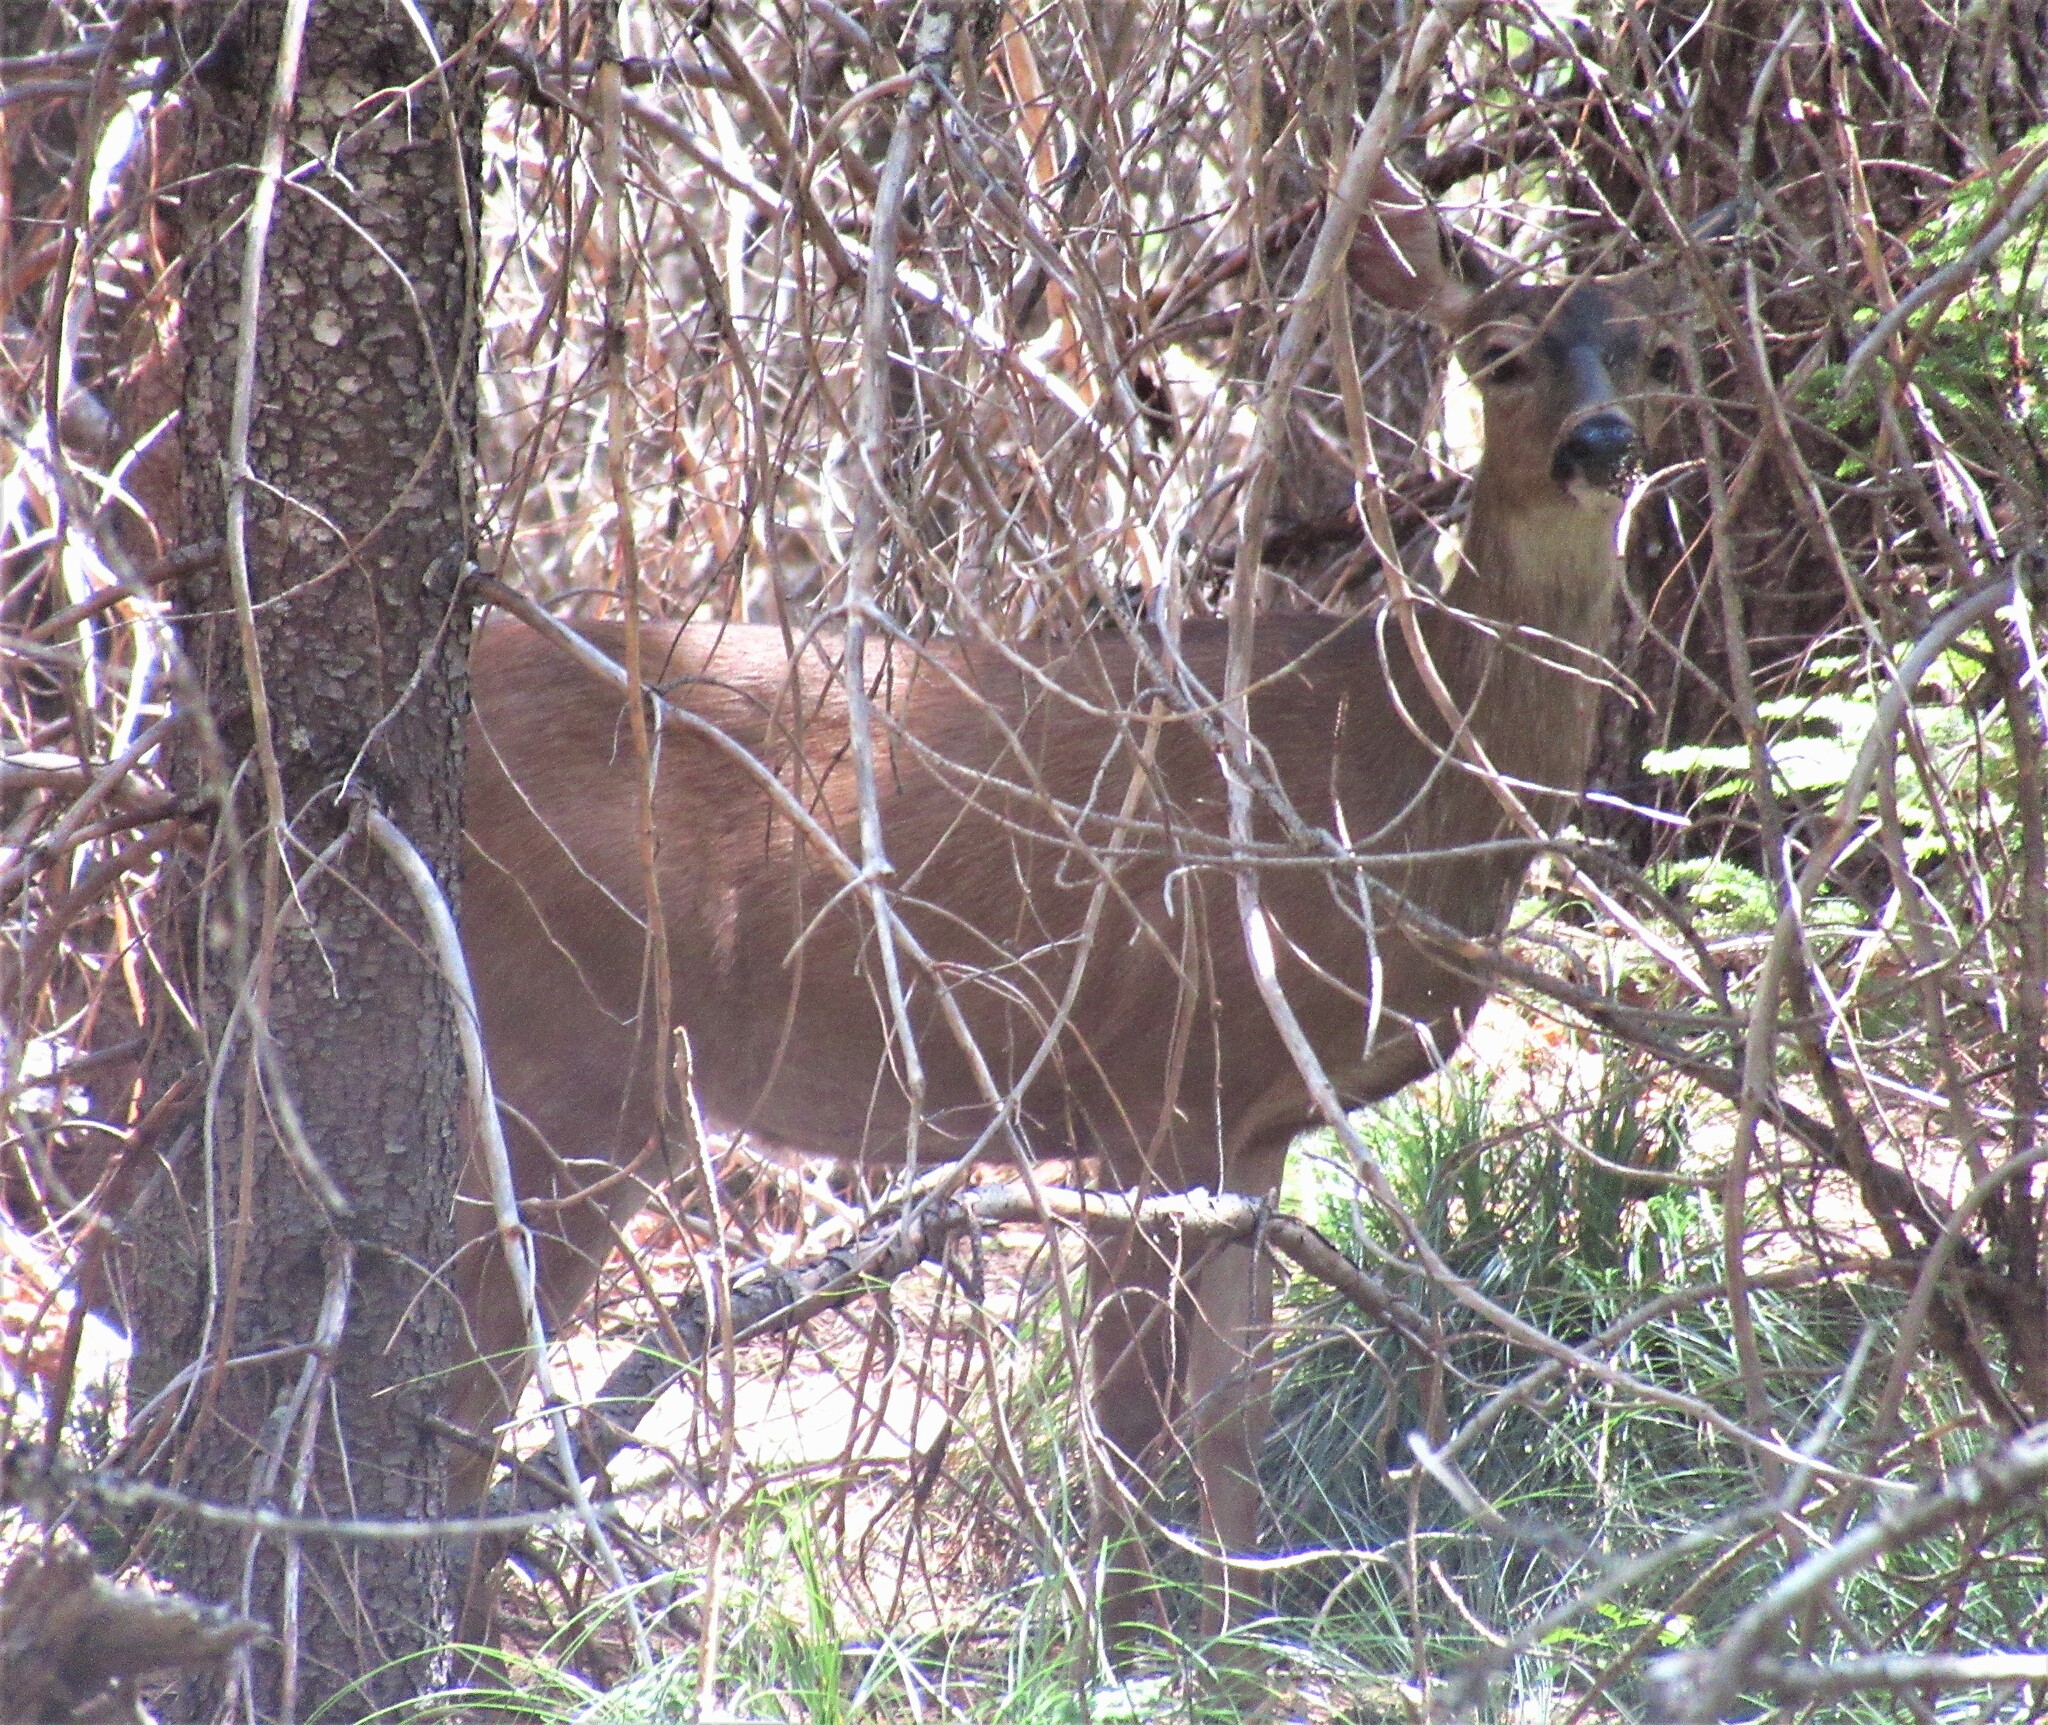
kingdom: Animalia
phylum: Chordata
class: Mammalia
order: Artiodactyla
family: Cervidae
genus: Odocoileus
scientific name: Odocoileus hemionus
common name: Mule deer
